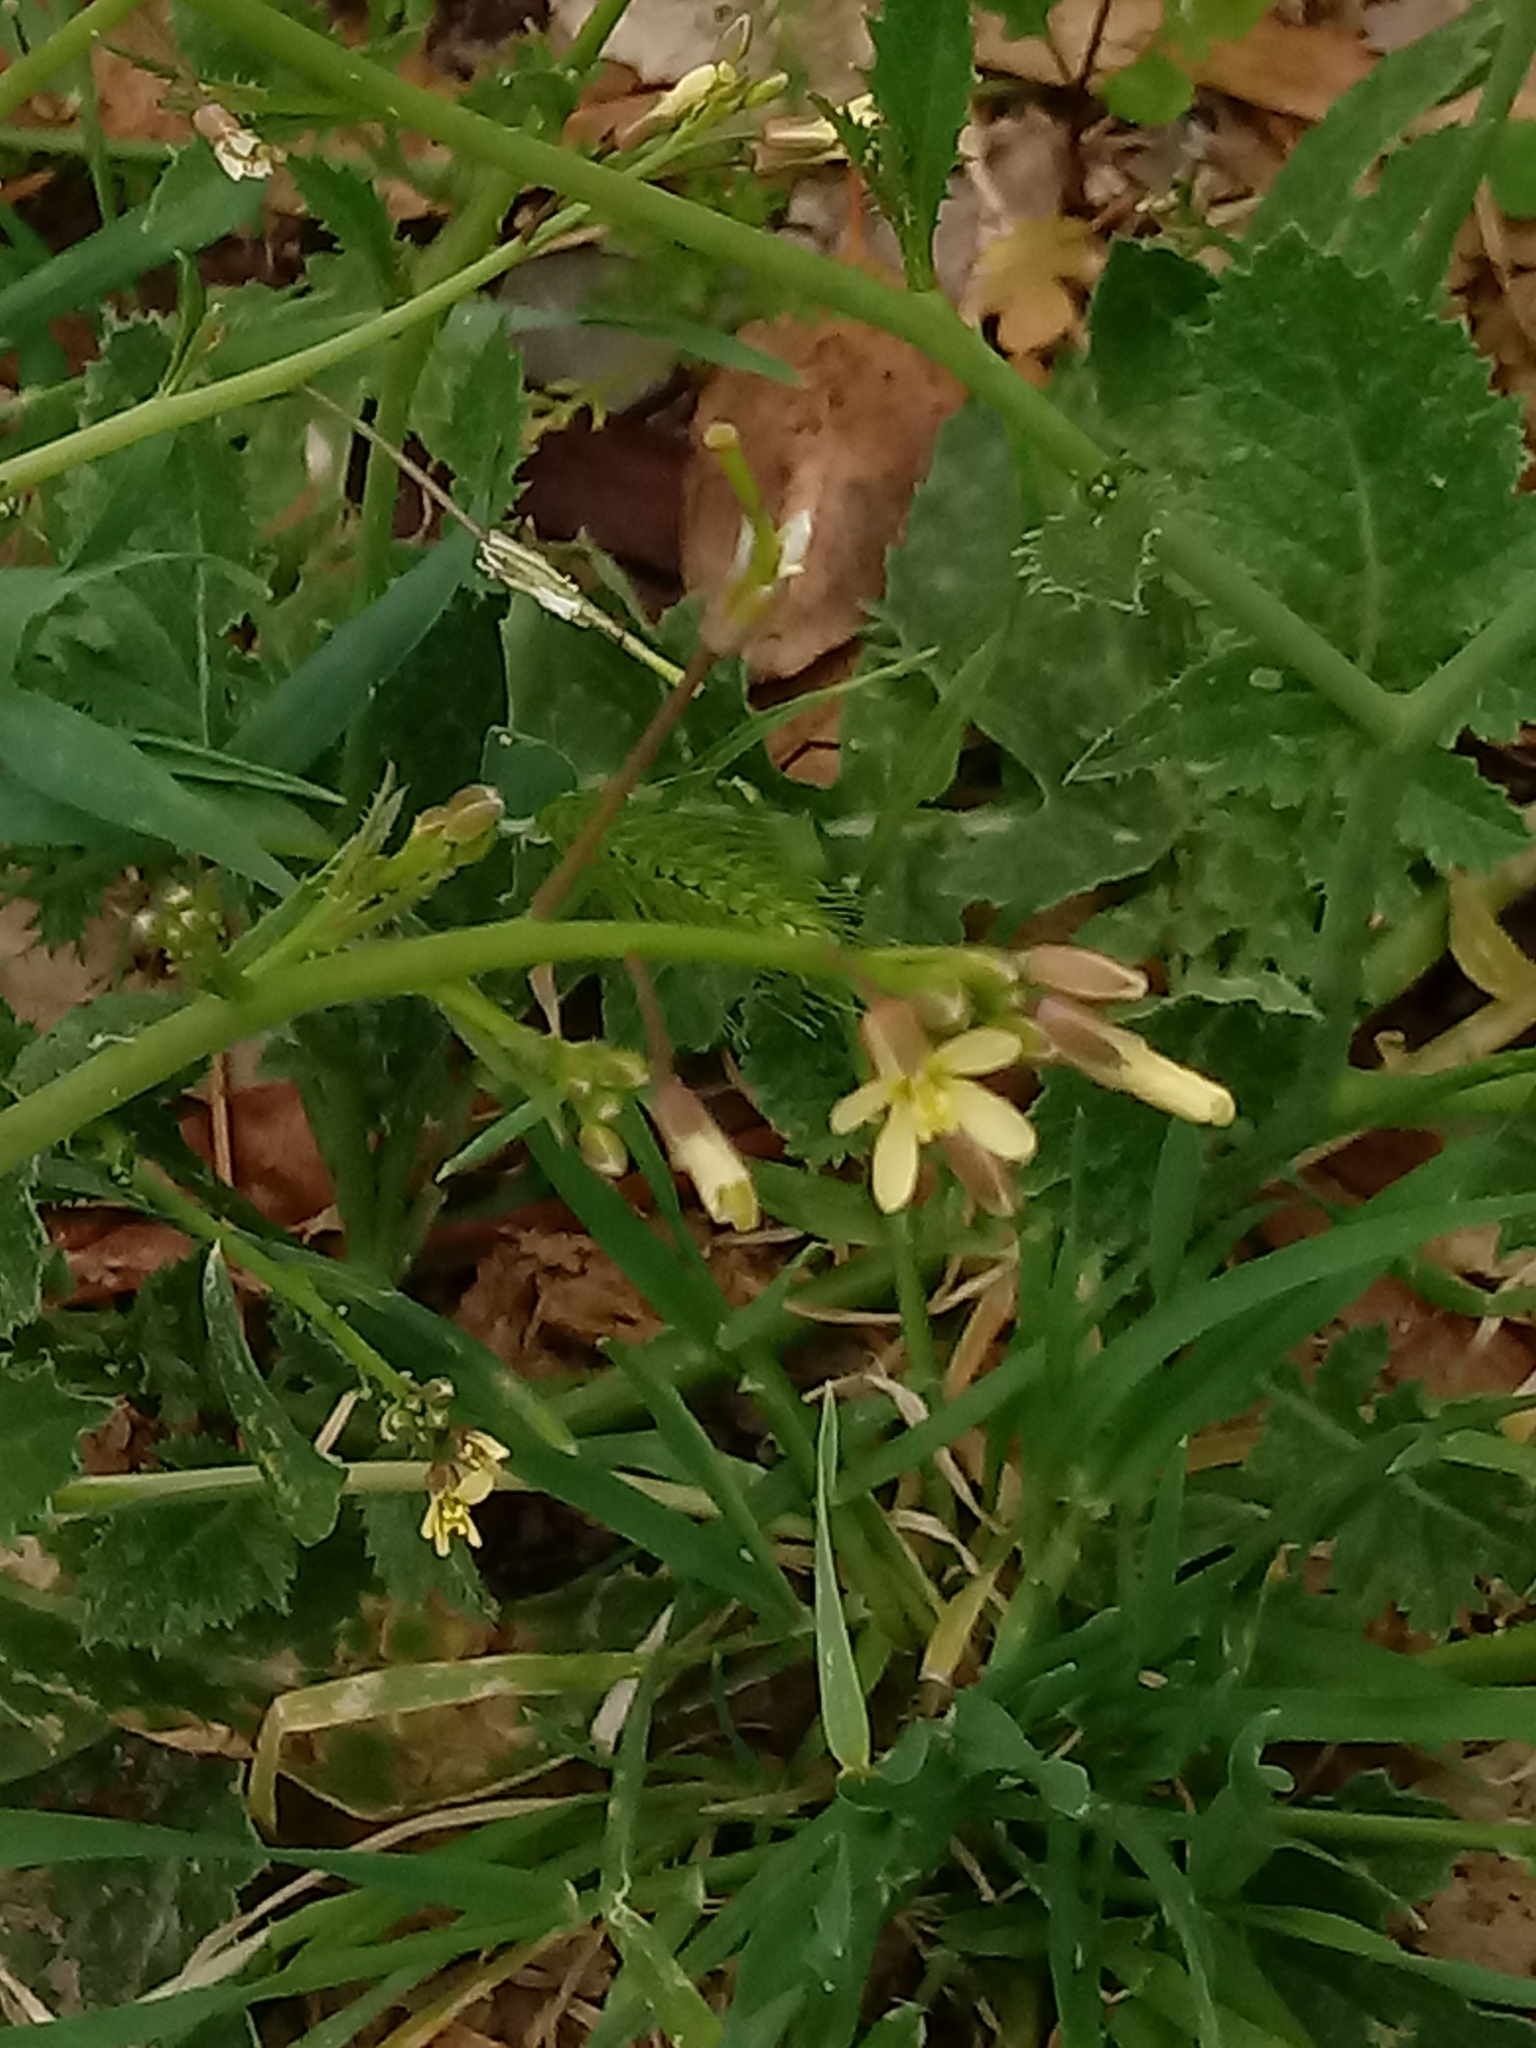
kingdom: Plantae
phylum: Tracheophyta
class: Magnoliopsida
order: Brassicales
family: Brassicaceae
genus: Brassica
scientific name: Brassica tournefortii
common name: Pale cabbage
